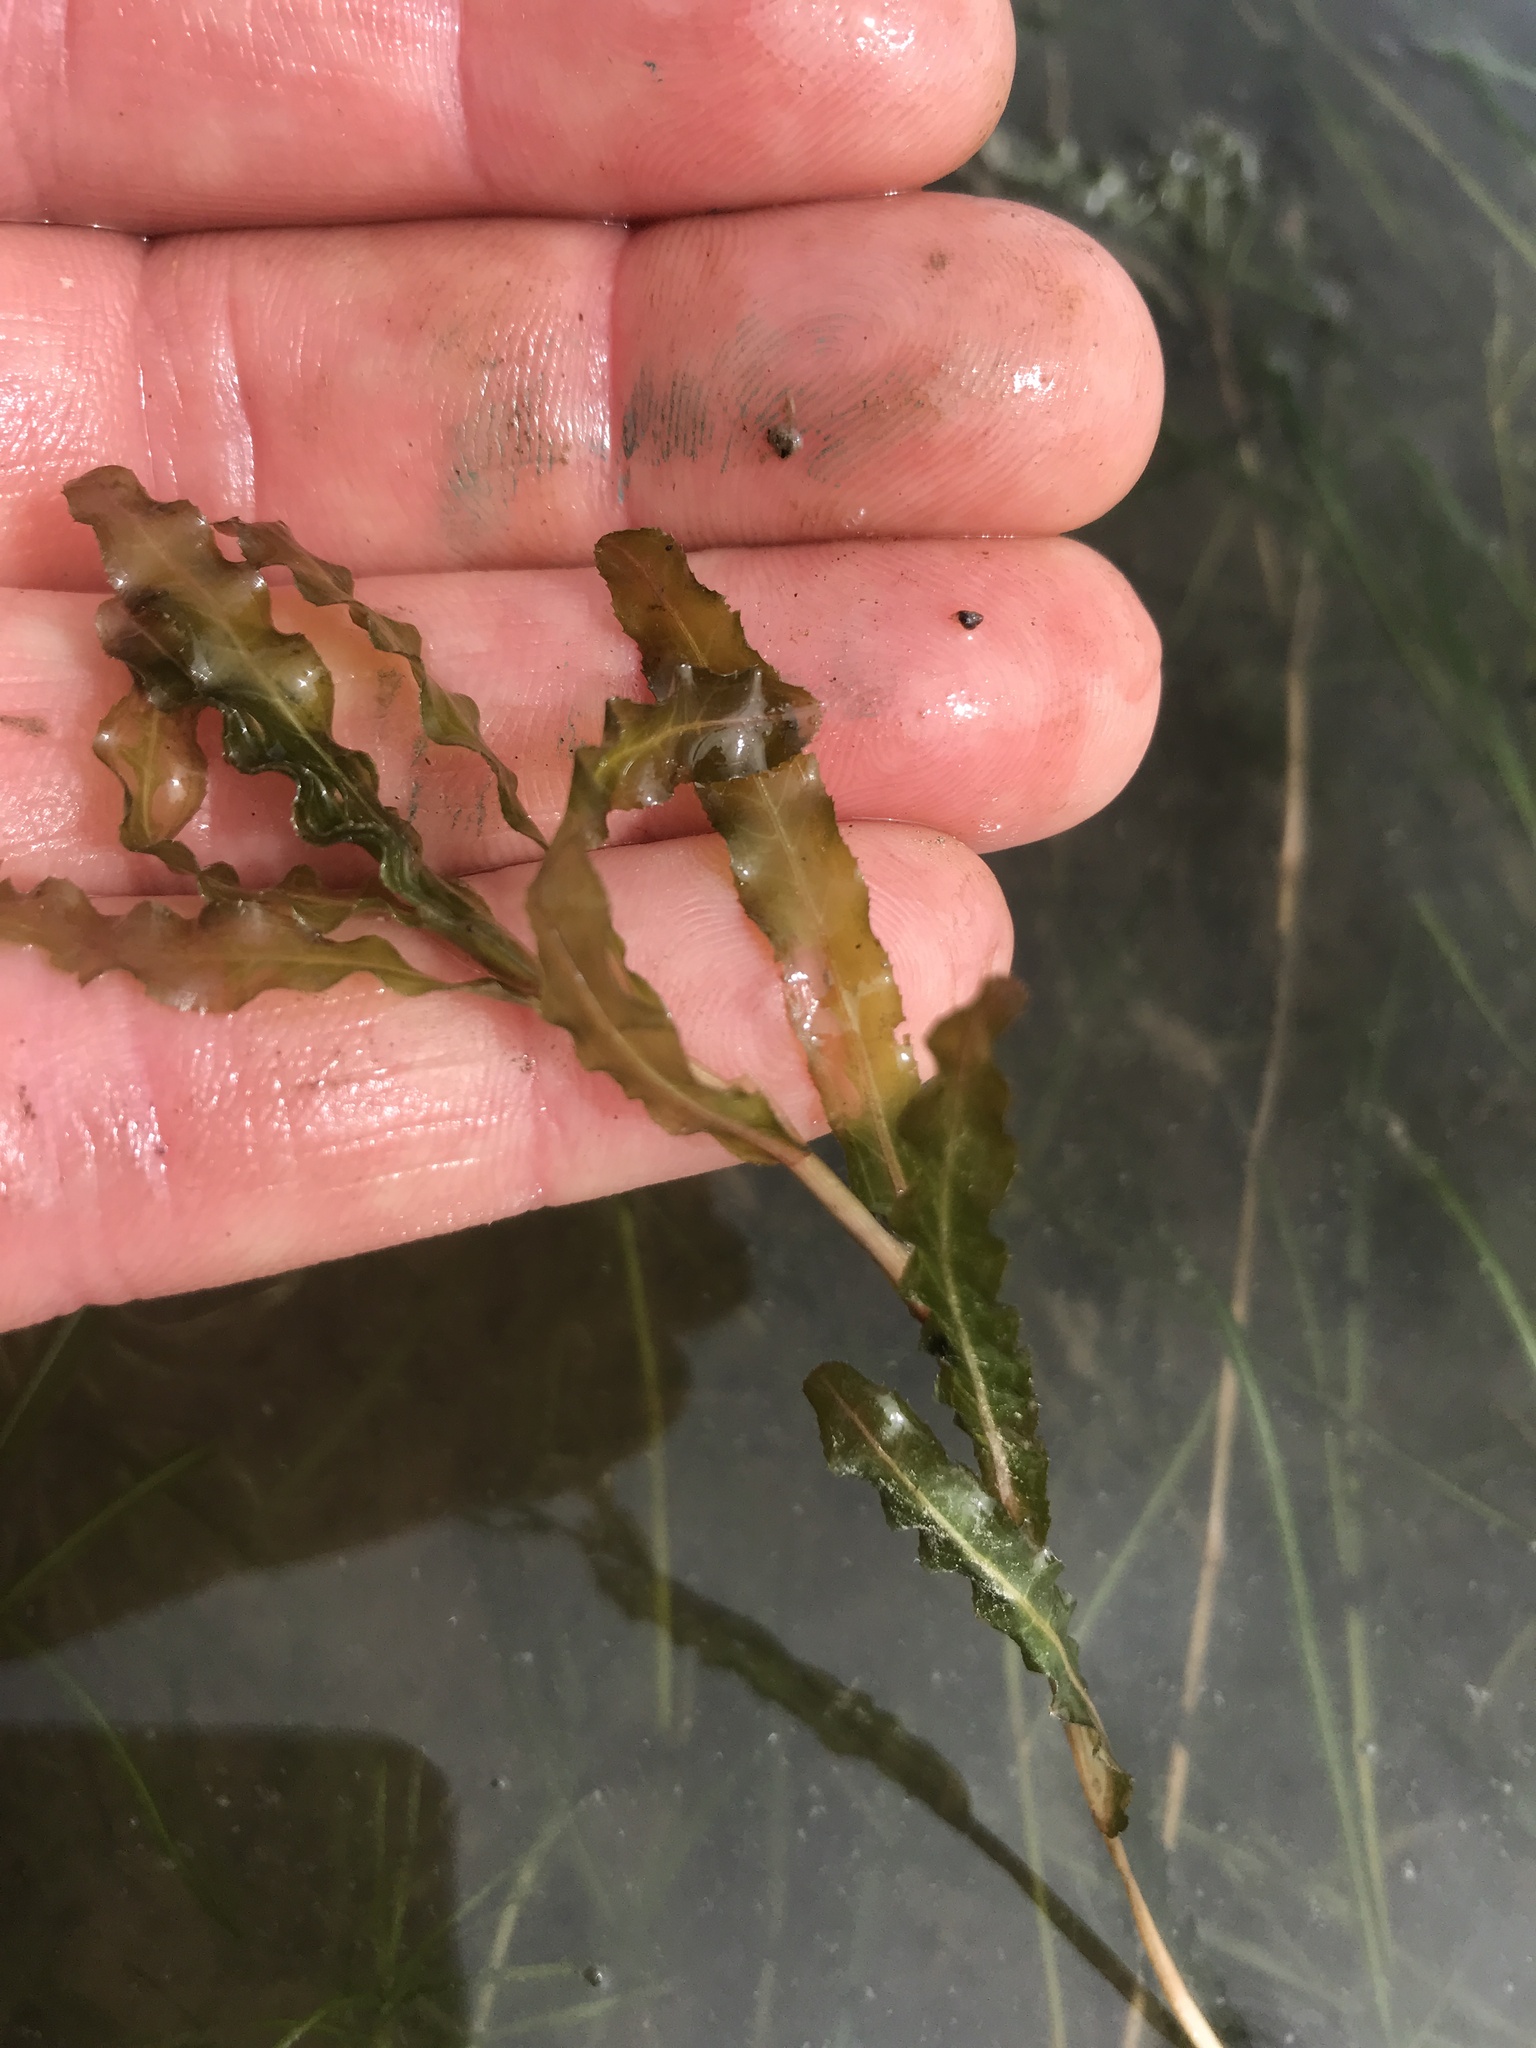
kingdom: Plantae
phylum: Tracheophyta
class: Liliopsida
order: Alismatales
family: Potamogetonaceae
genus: Potamogeton
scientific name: Potamogeton crispus
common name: Curled pondweed
